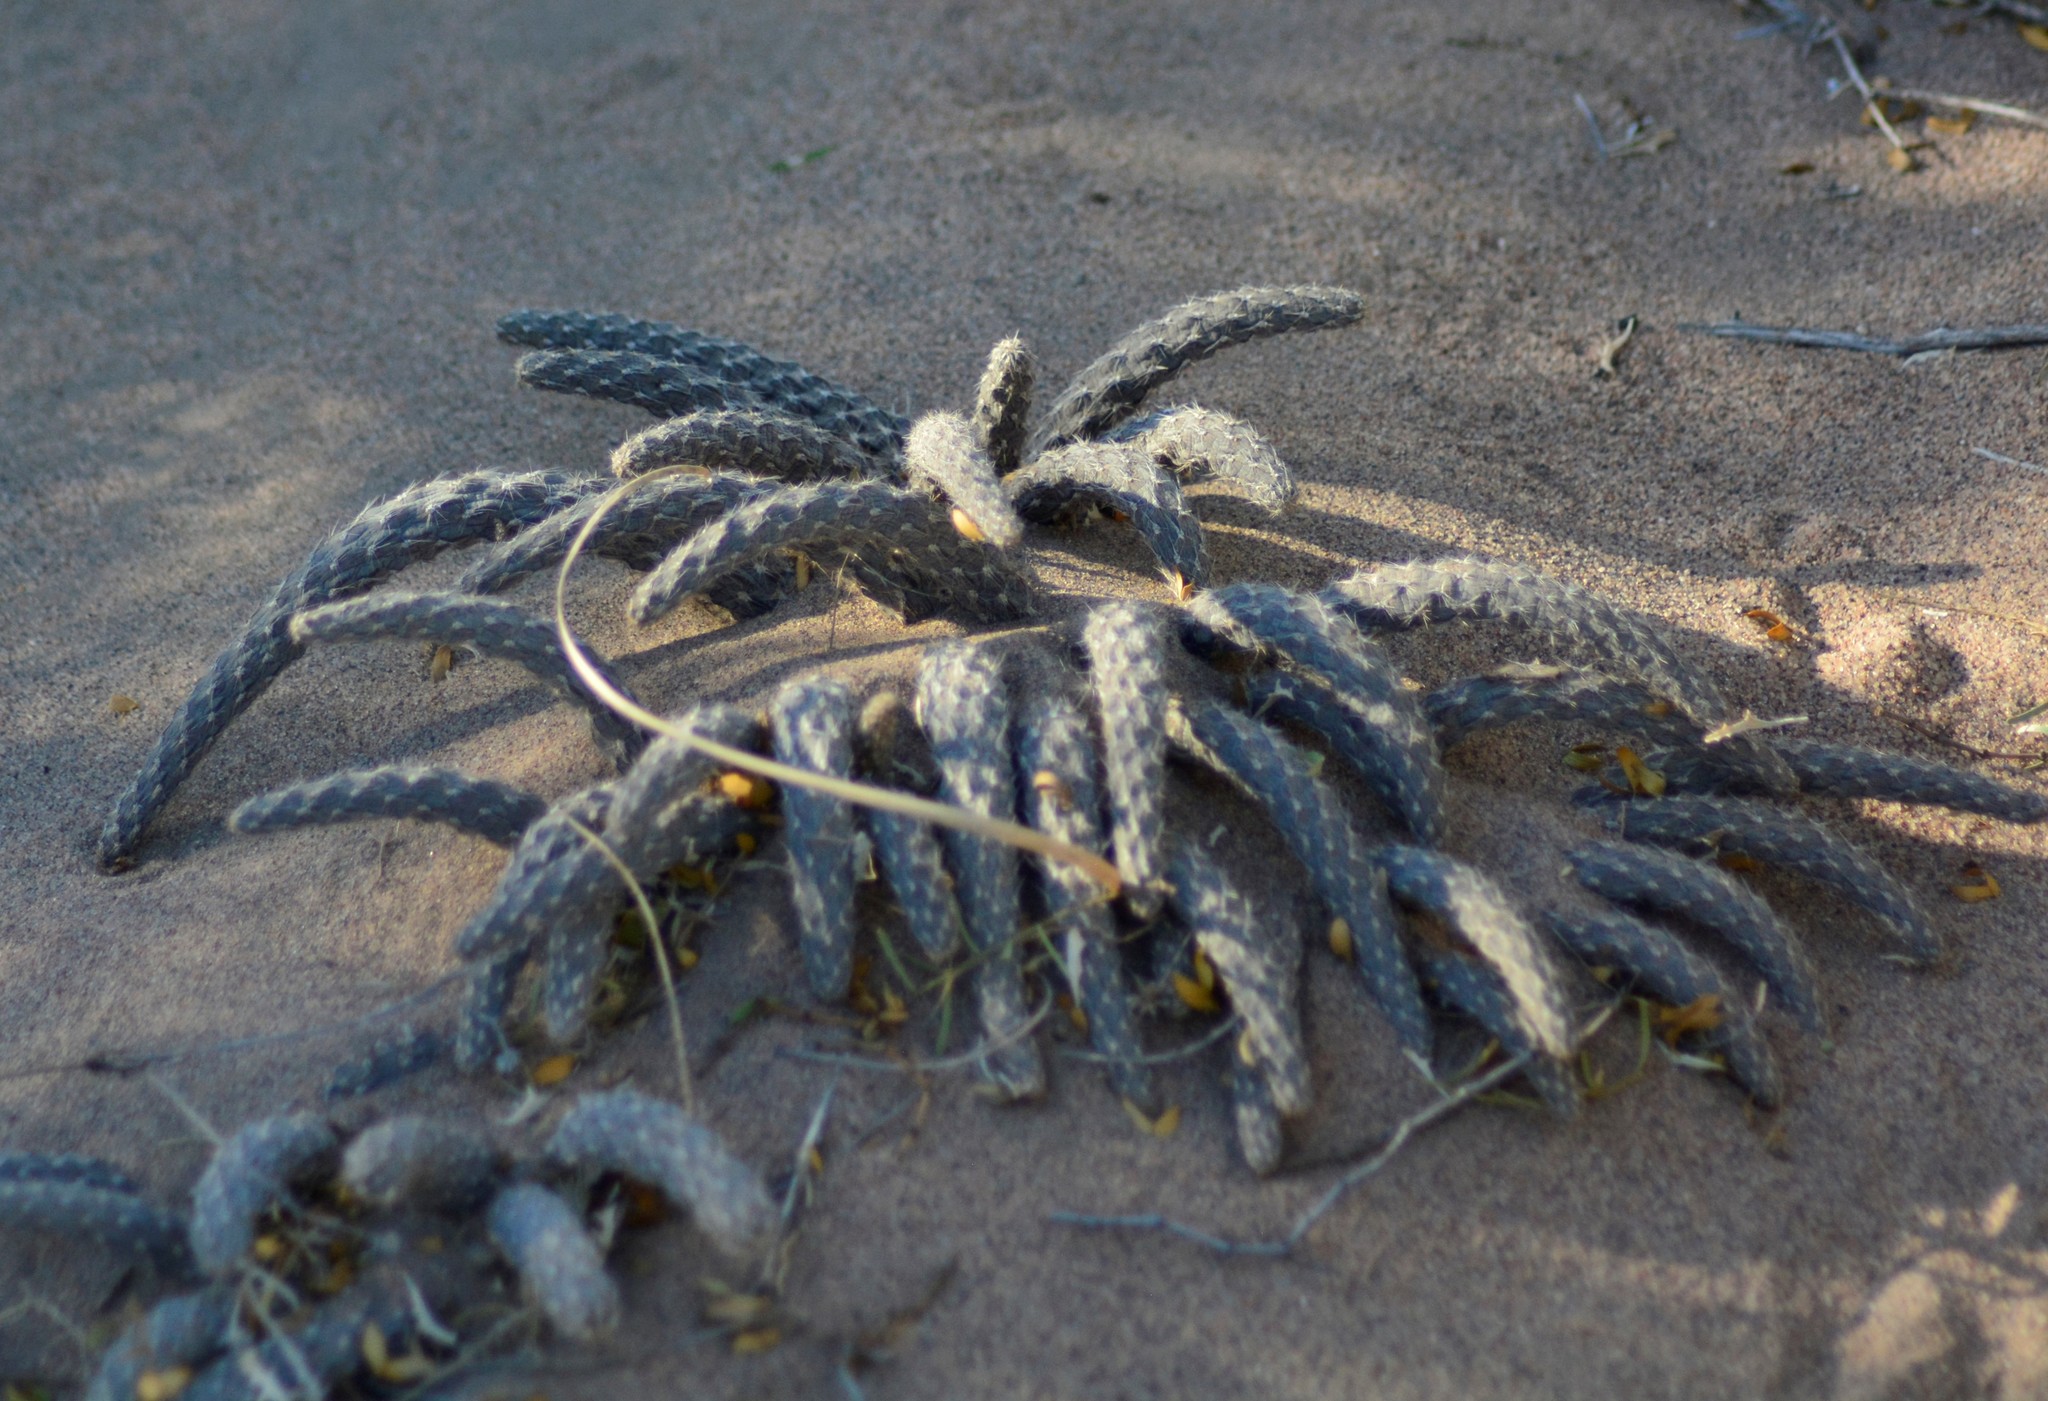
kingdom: Plantae
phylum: Tracheophyta
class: Magnoliopsida
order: Caryophyllales
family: Cactaceae
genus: Pterocactus
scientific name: Pterocactus tuberosus
